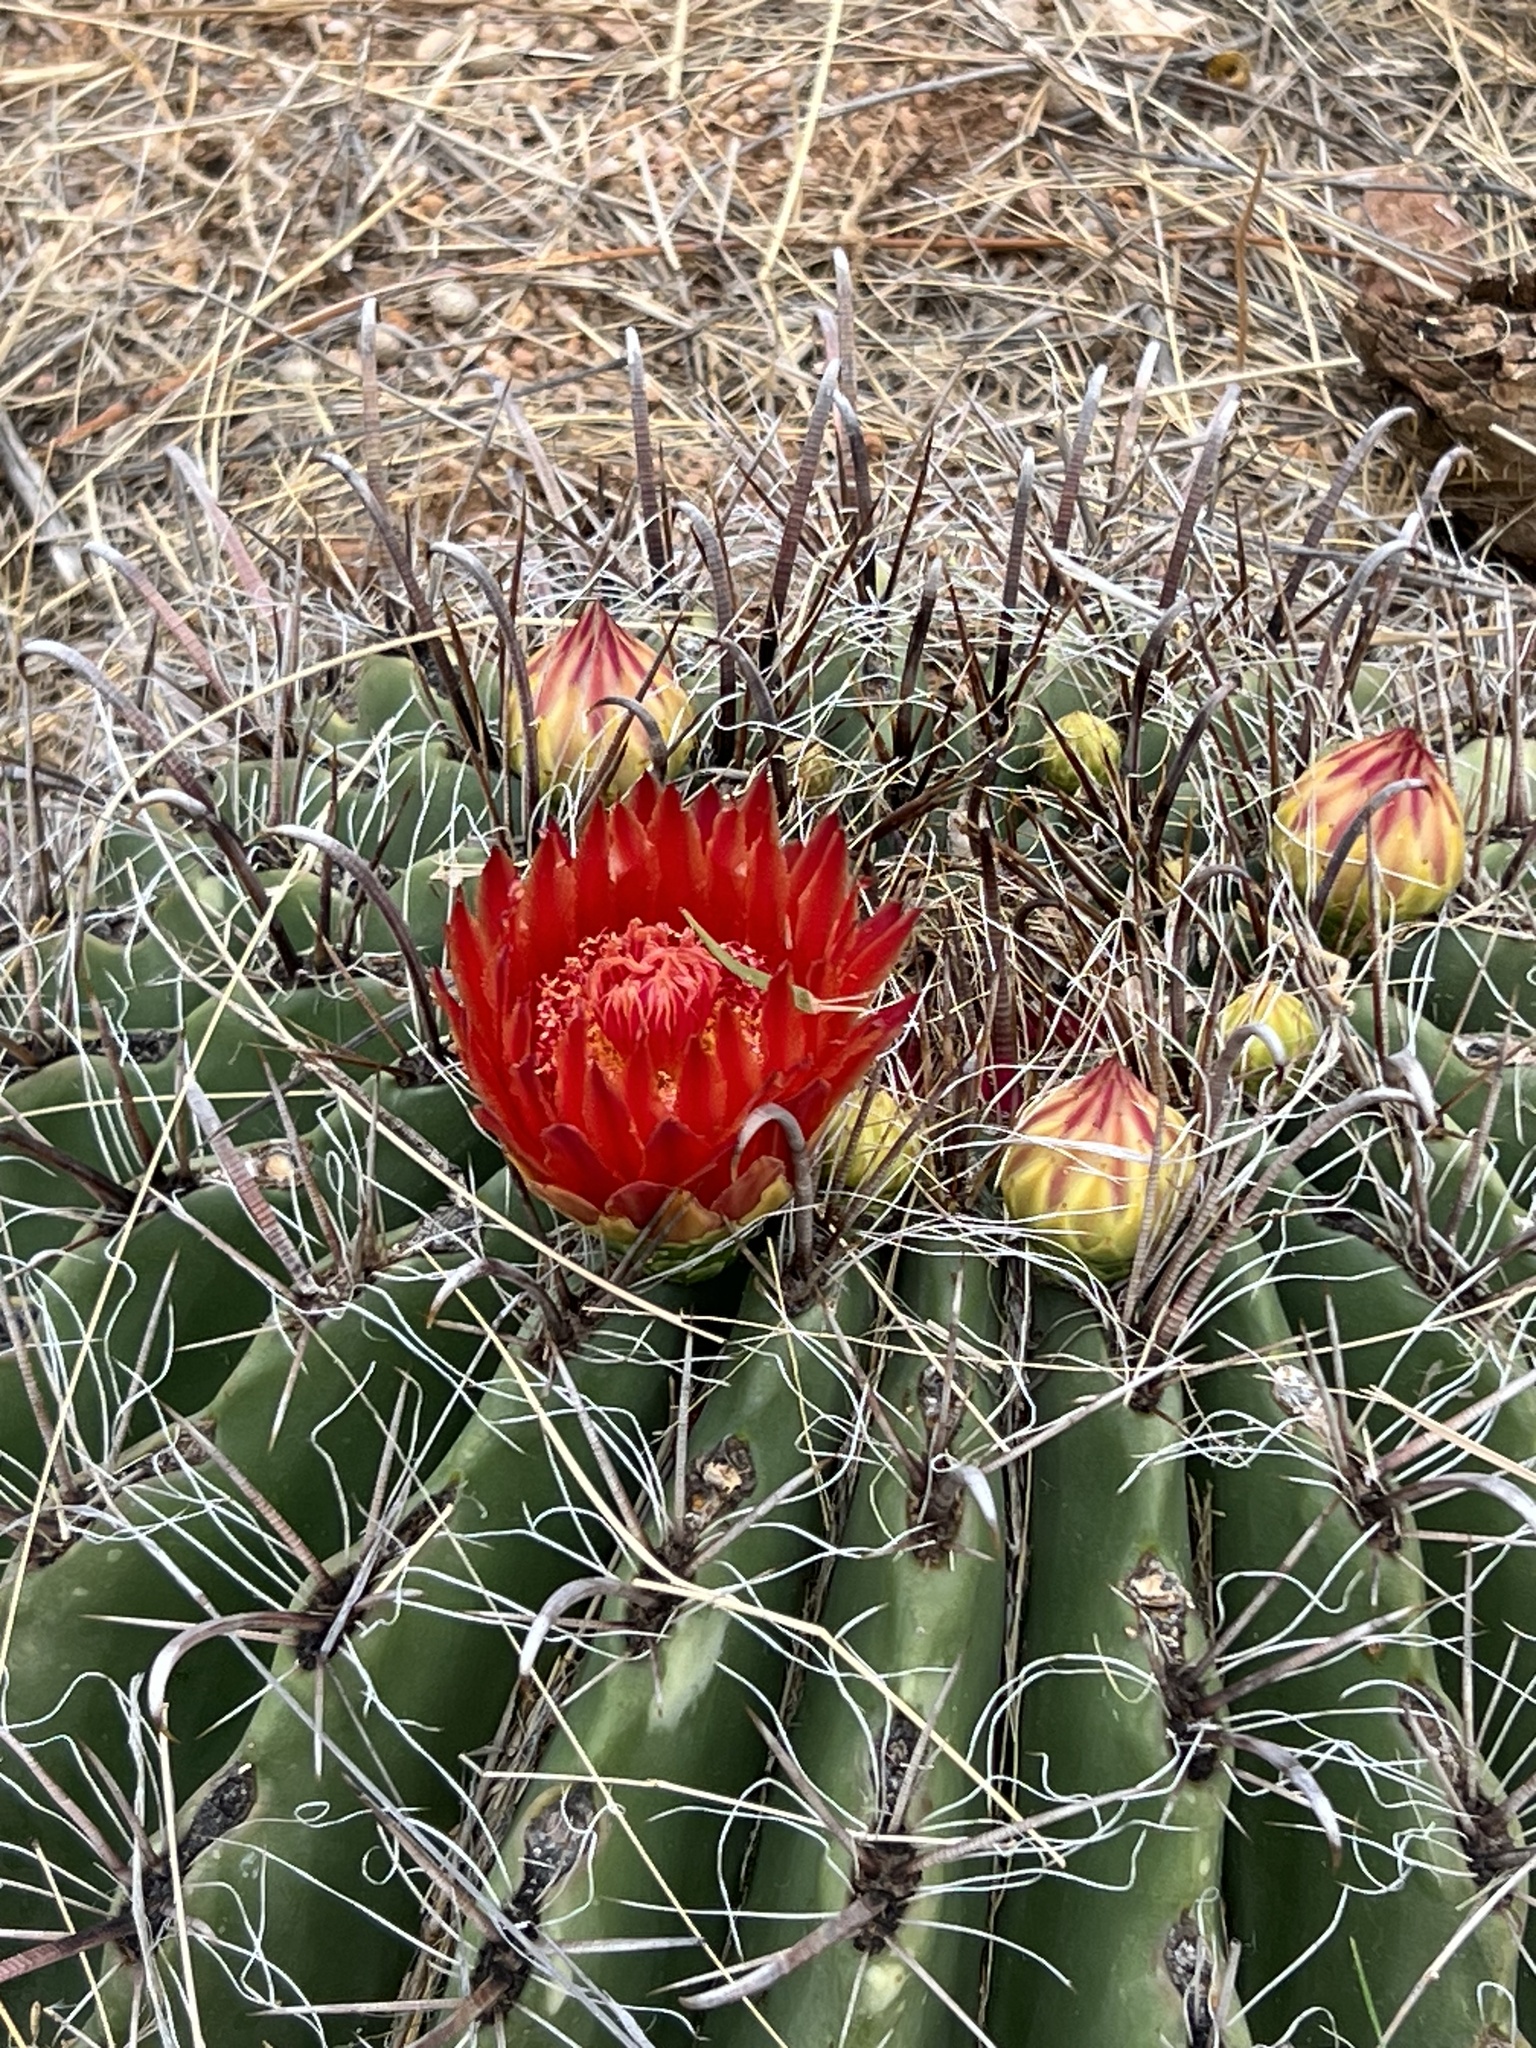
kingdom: Plantae
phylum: Tracheophyta
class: Magnoliopsida
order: Caryophyllales
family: Cactaceae
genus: Ferocactus
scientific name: Ferocactus wislizeni
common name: Candy barrel cactus
